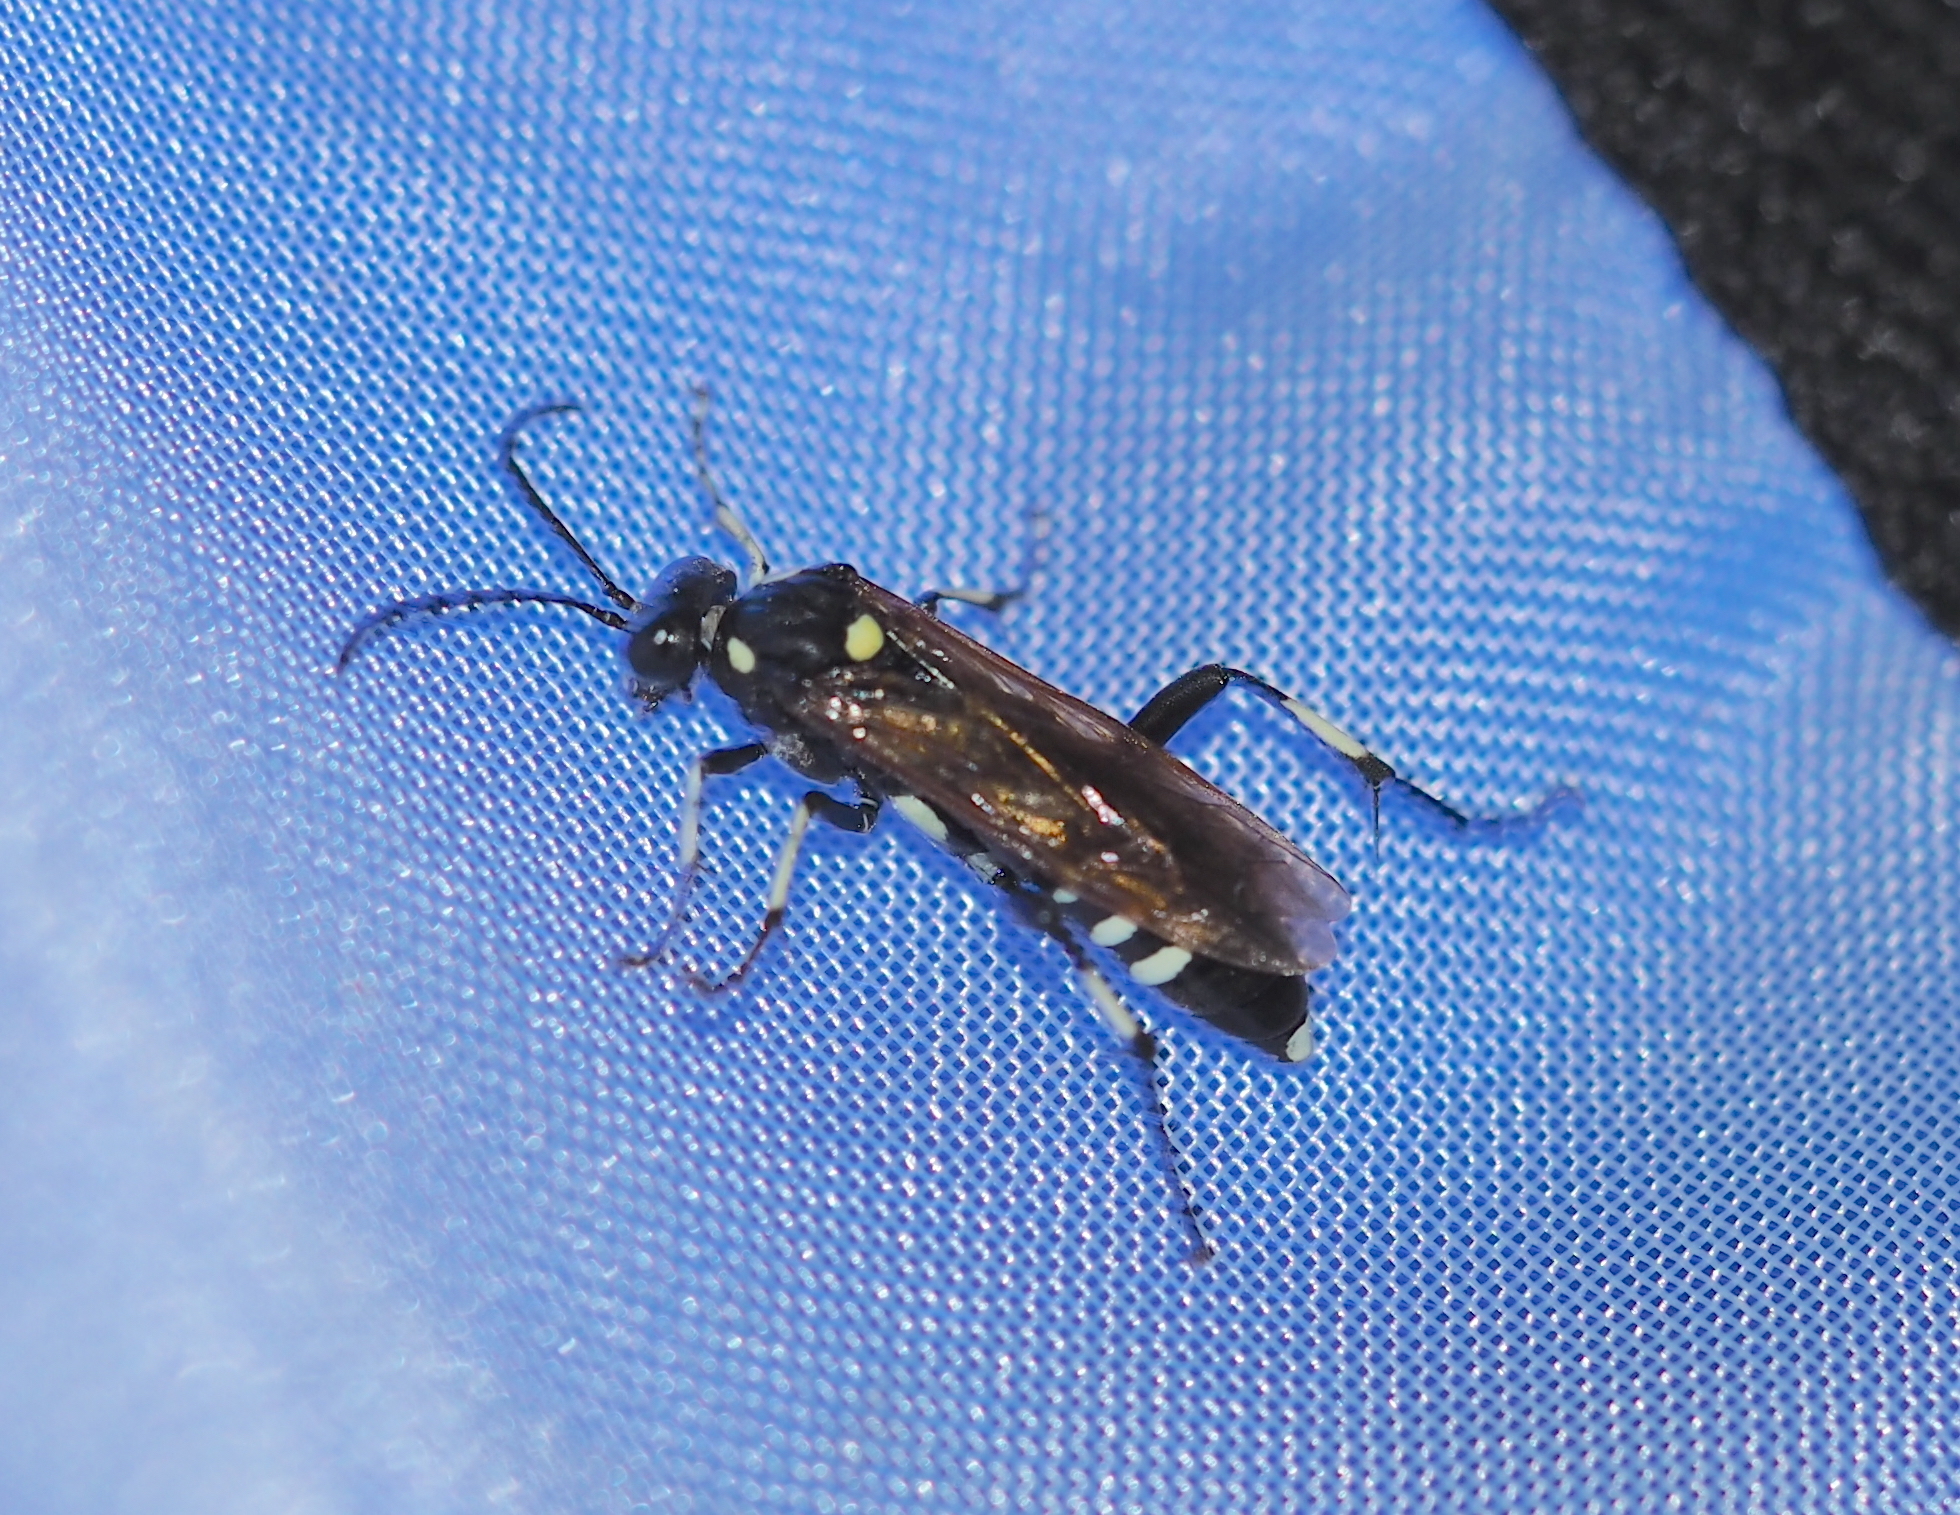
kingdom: Animalia
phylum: Arthropoda
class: Insecta
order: Hymenoptera
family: Tenthredinidae
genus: Macrophya
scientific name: Macrophya duodecimpunctata
